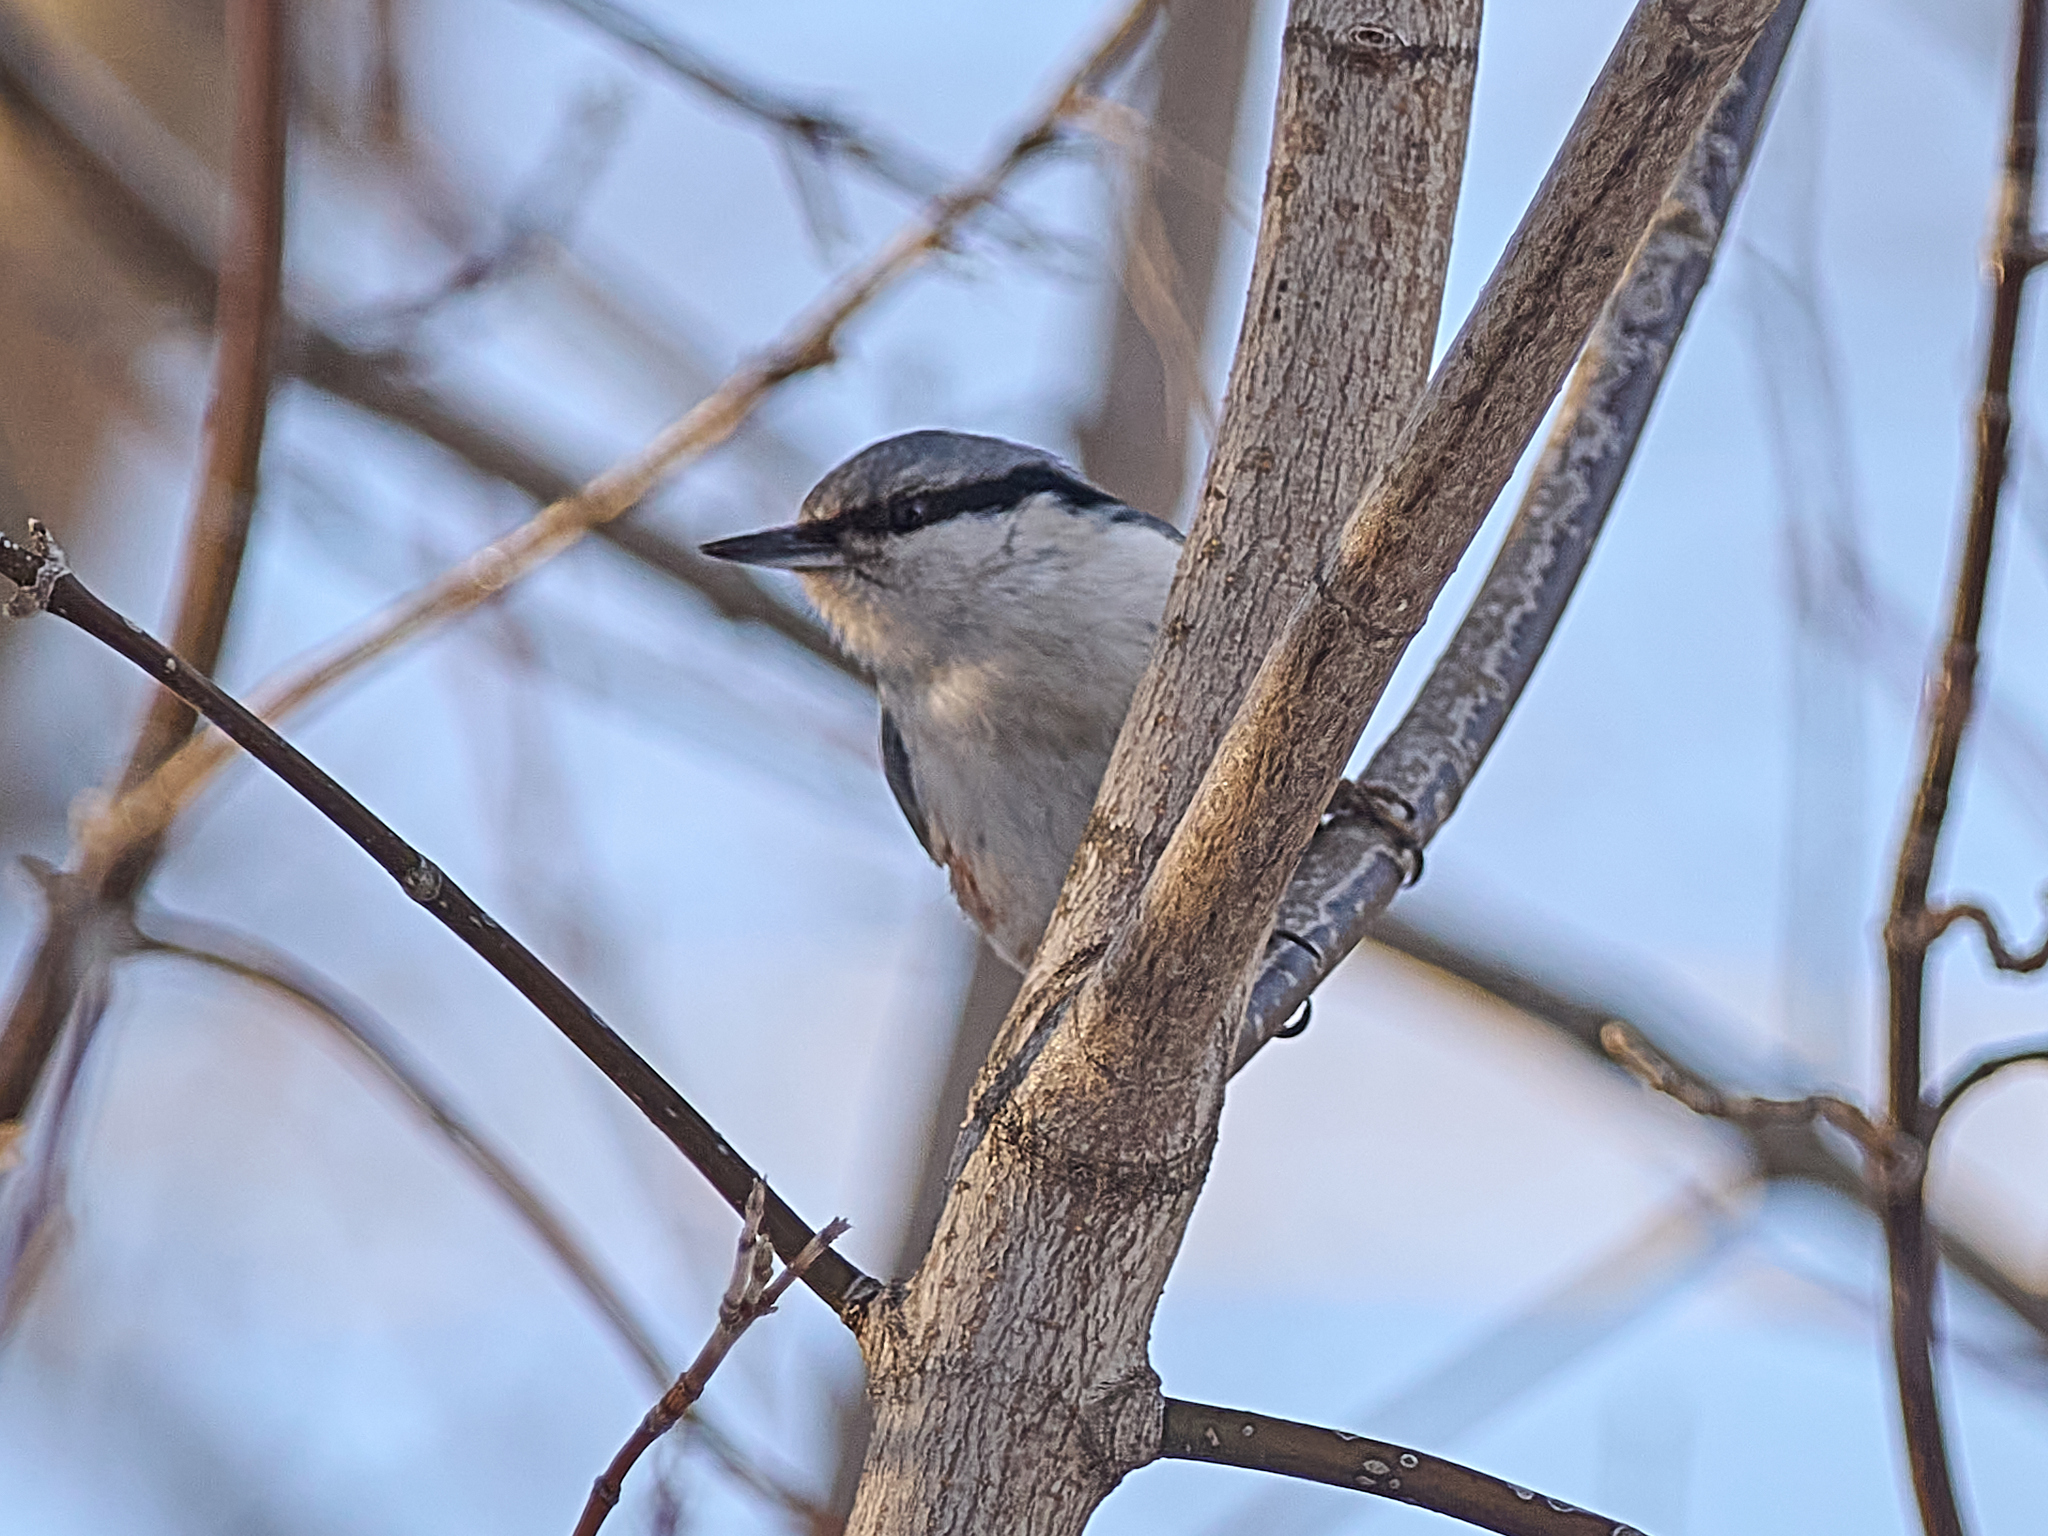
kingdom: Animalia
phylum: Chordata
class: Aves
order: Passeriformes
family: Sittidae
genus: Sitta
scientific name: Sitta europaea
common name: Eurasian nuthatch
